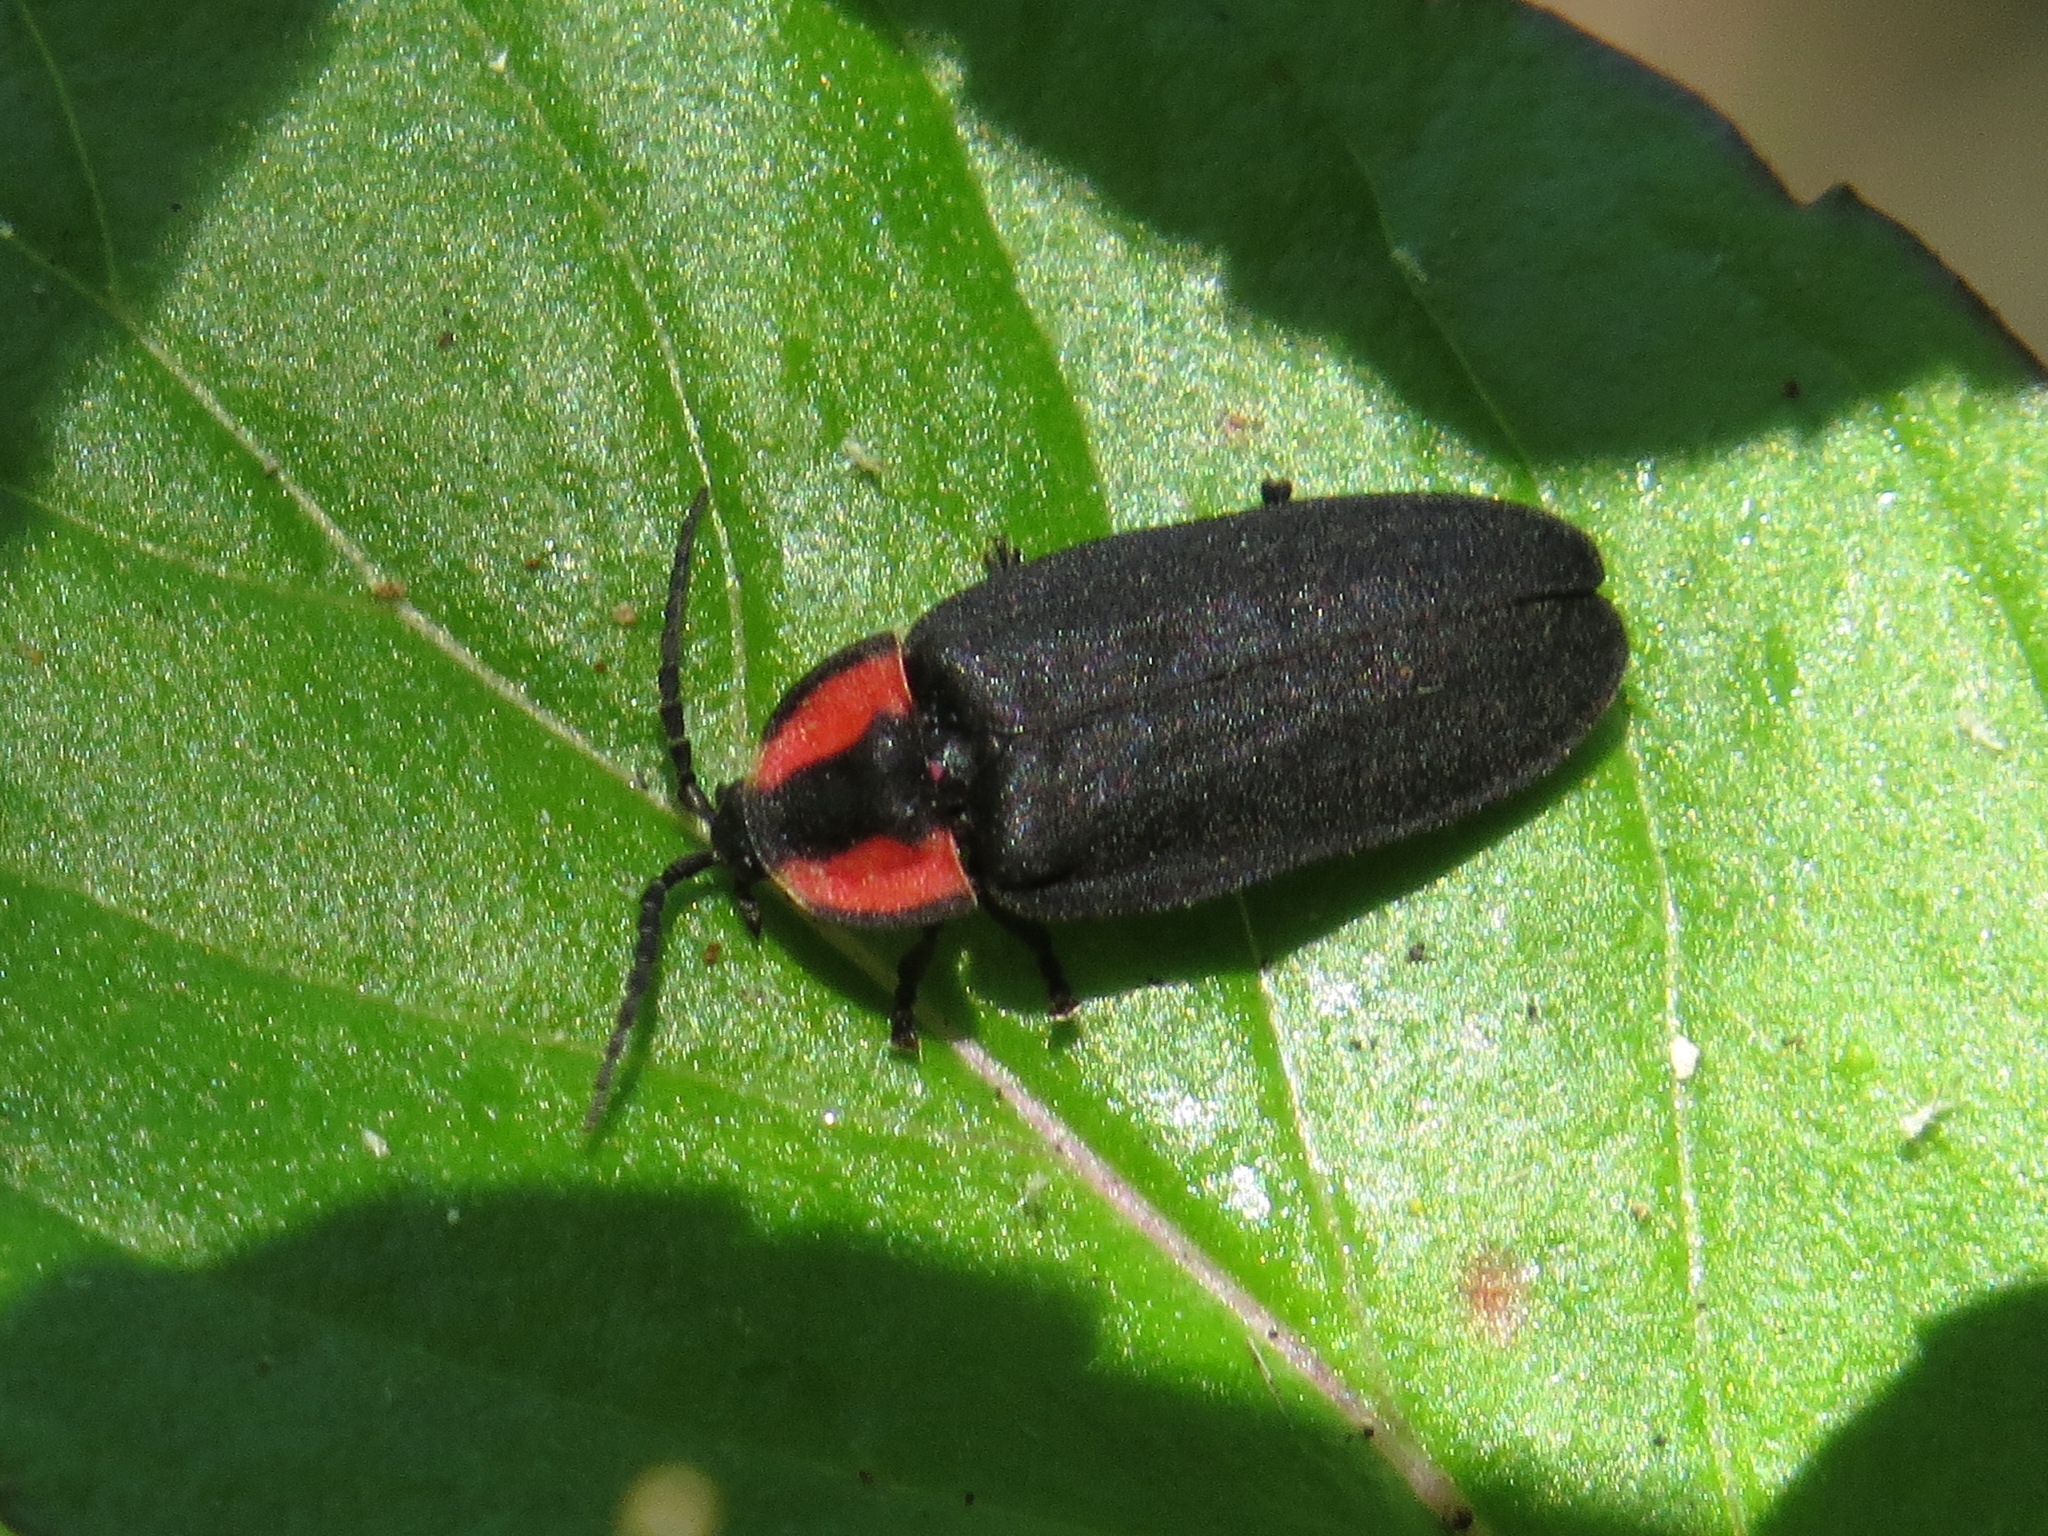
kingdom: Animalia
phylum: Arthropoda
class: Insecta
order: Coleoptera
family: Lampyridae
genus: Ellychnia
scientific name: Ellychnia megista
